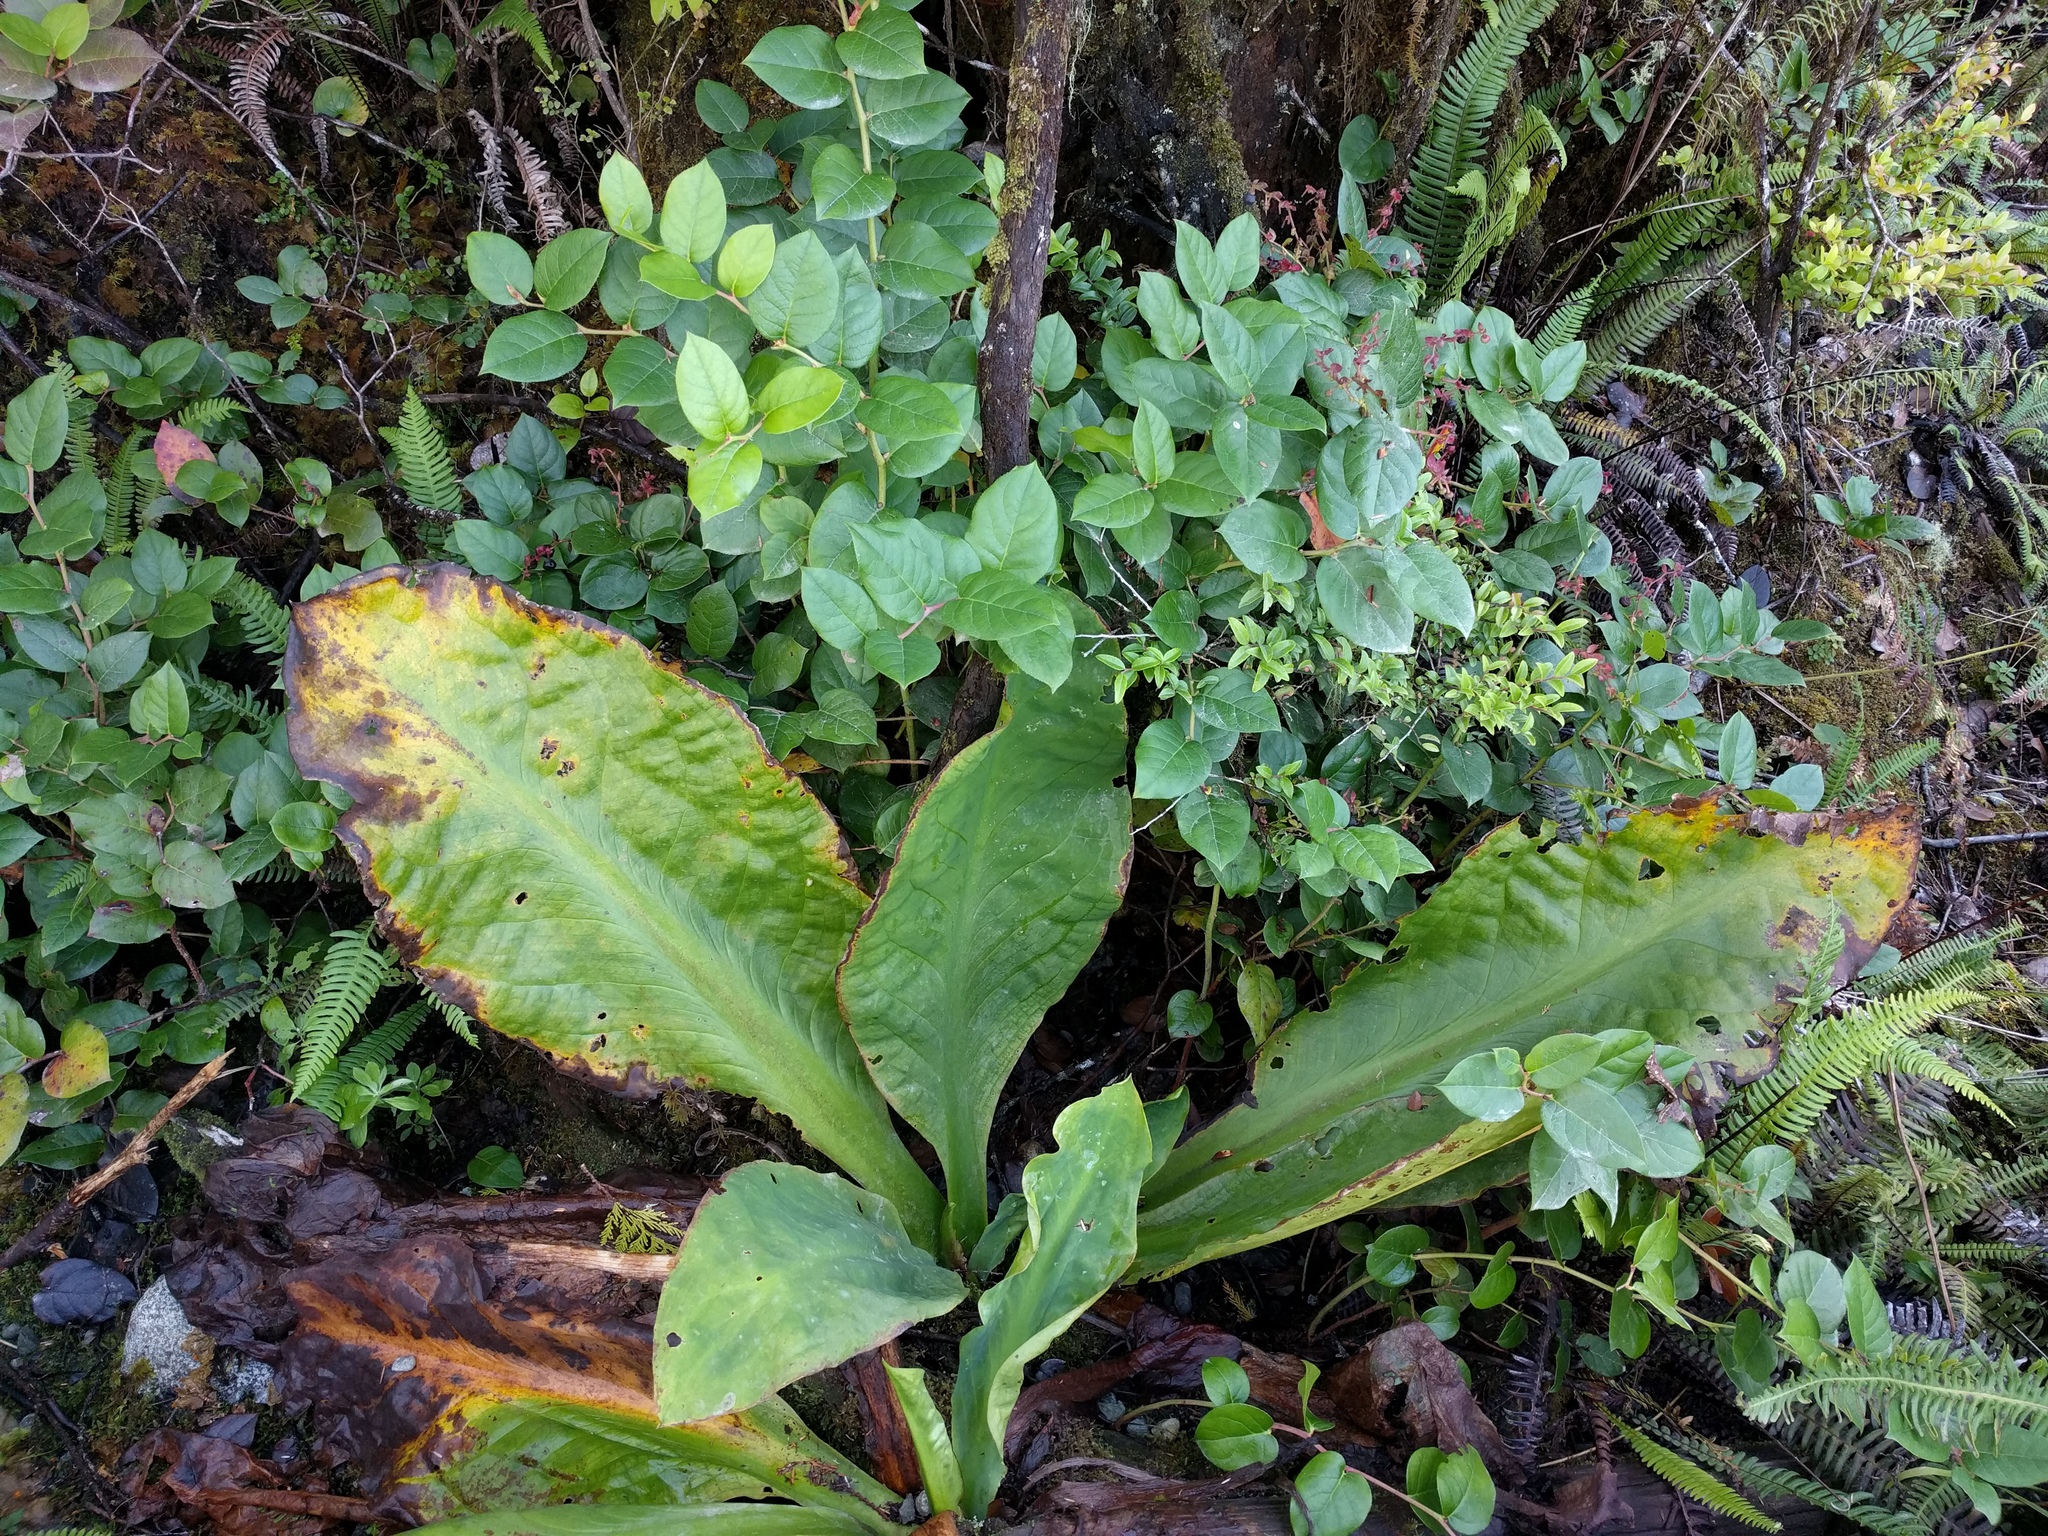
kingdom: Plantae
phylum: Tracheophyta
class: Liliopsida
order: Alismatales
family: Araceae
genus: Lysichiton
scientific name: Lysichiton americanus
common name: American skunk cabbage
